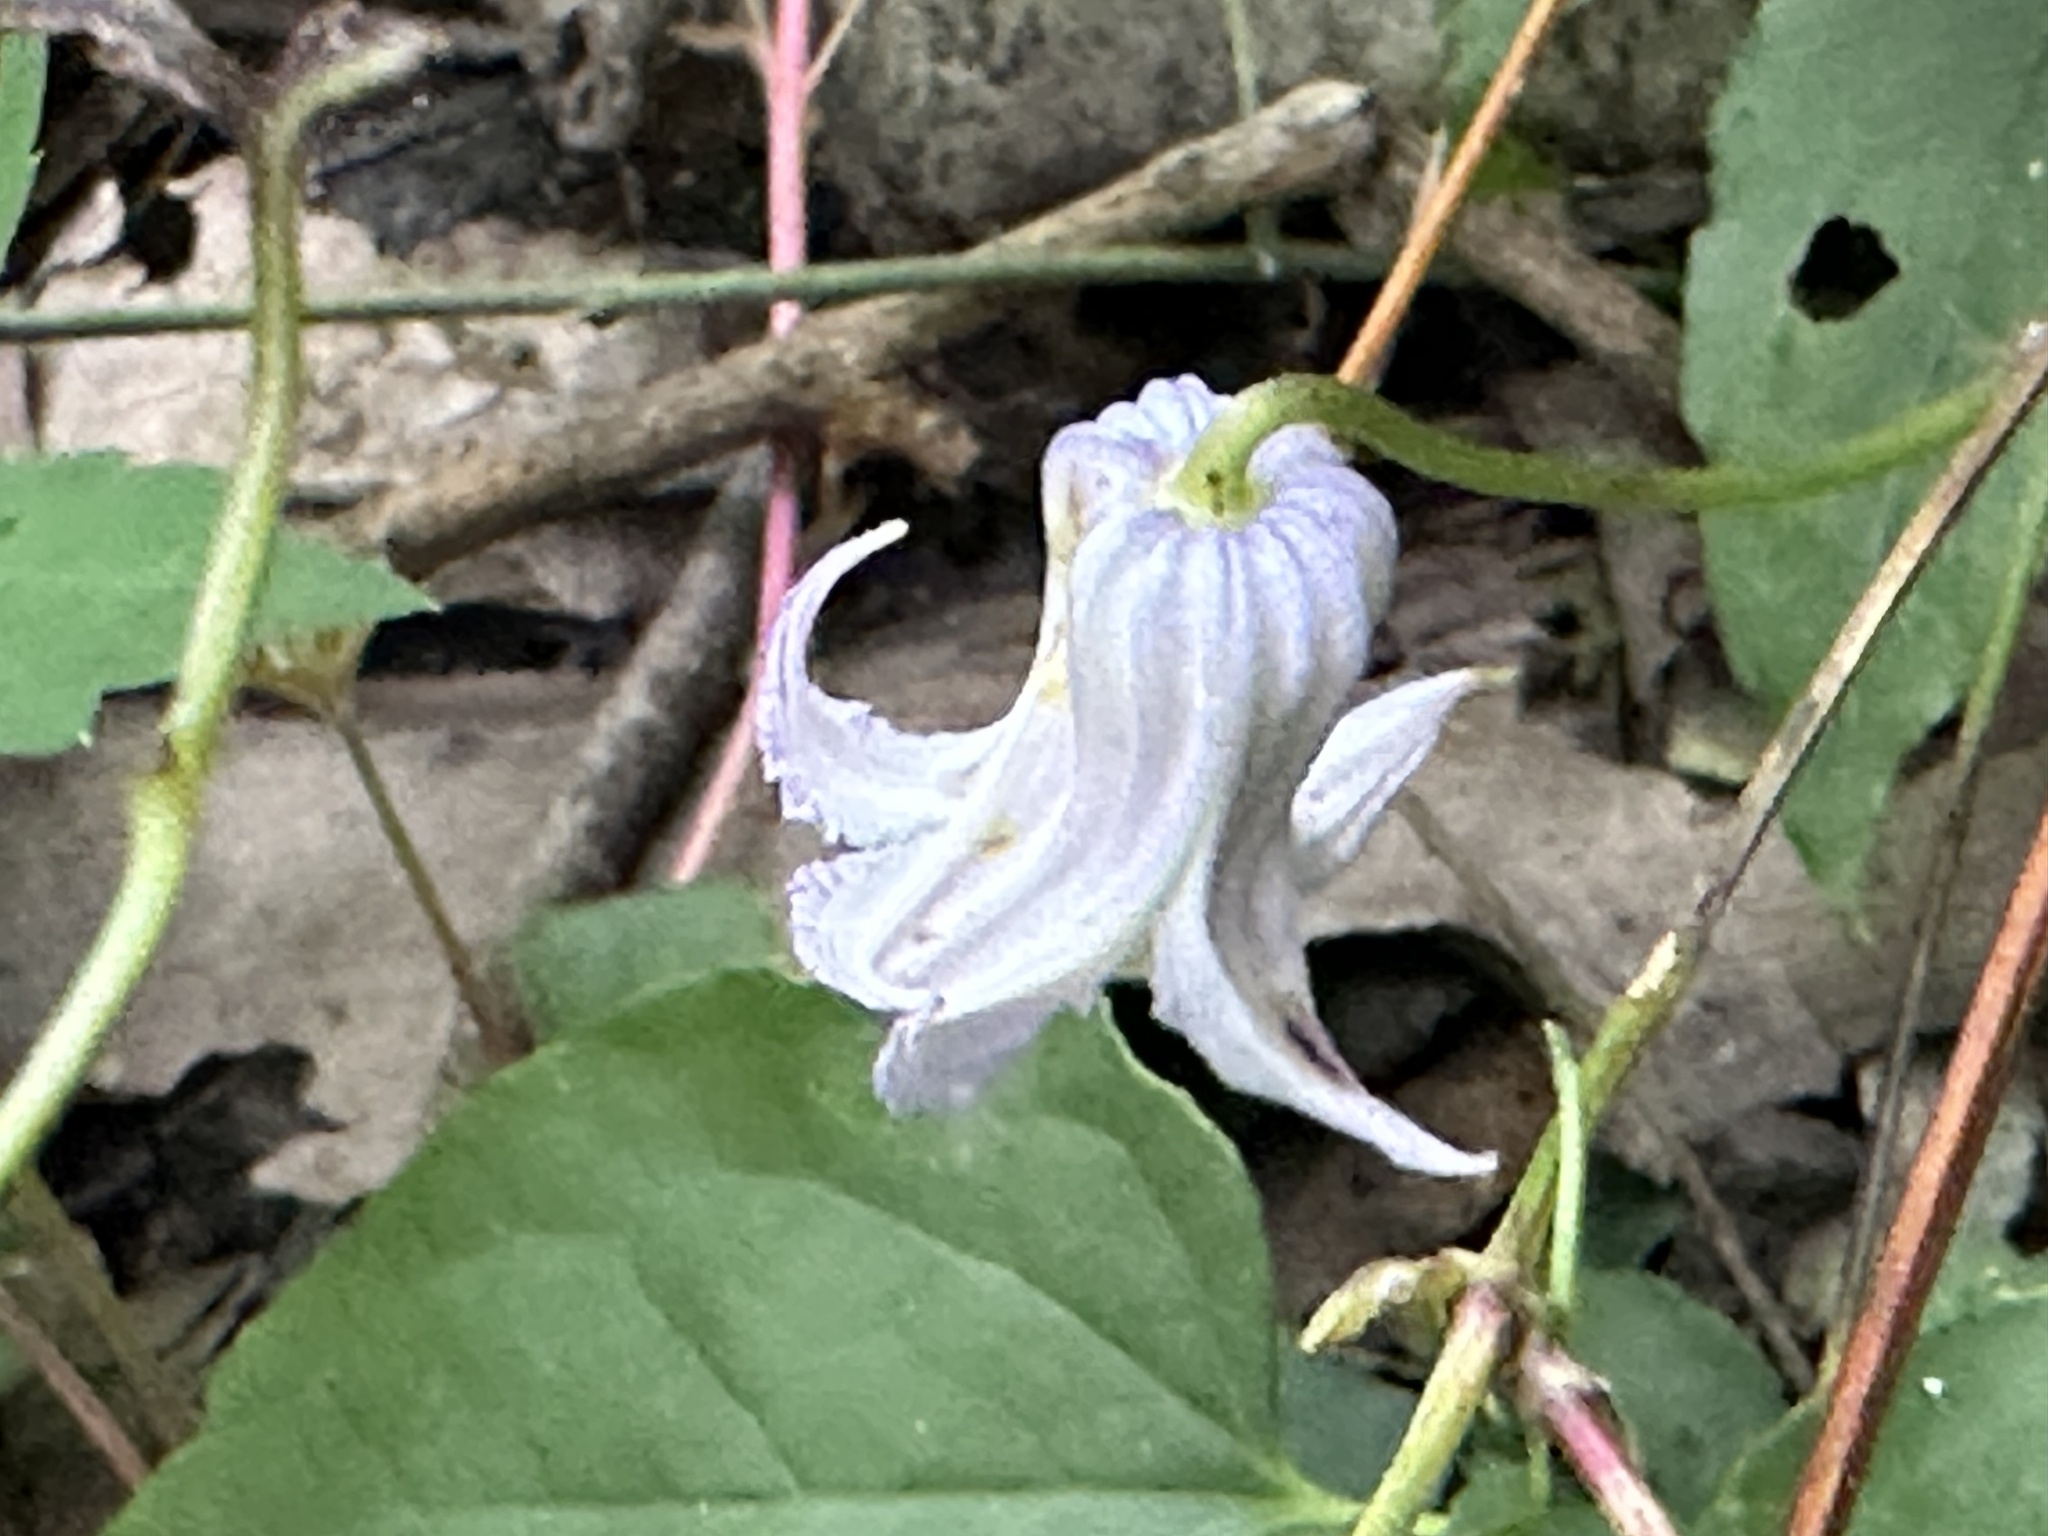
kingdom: Plantae
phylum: Tracheophyta
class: Magnoliopsida
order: Ranunculales
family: Ranunculaceae
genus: Clematis
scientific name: Clematis crispa
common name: Curly clematis
